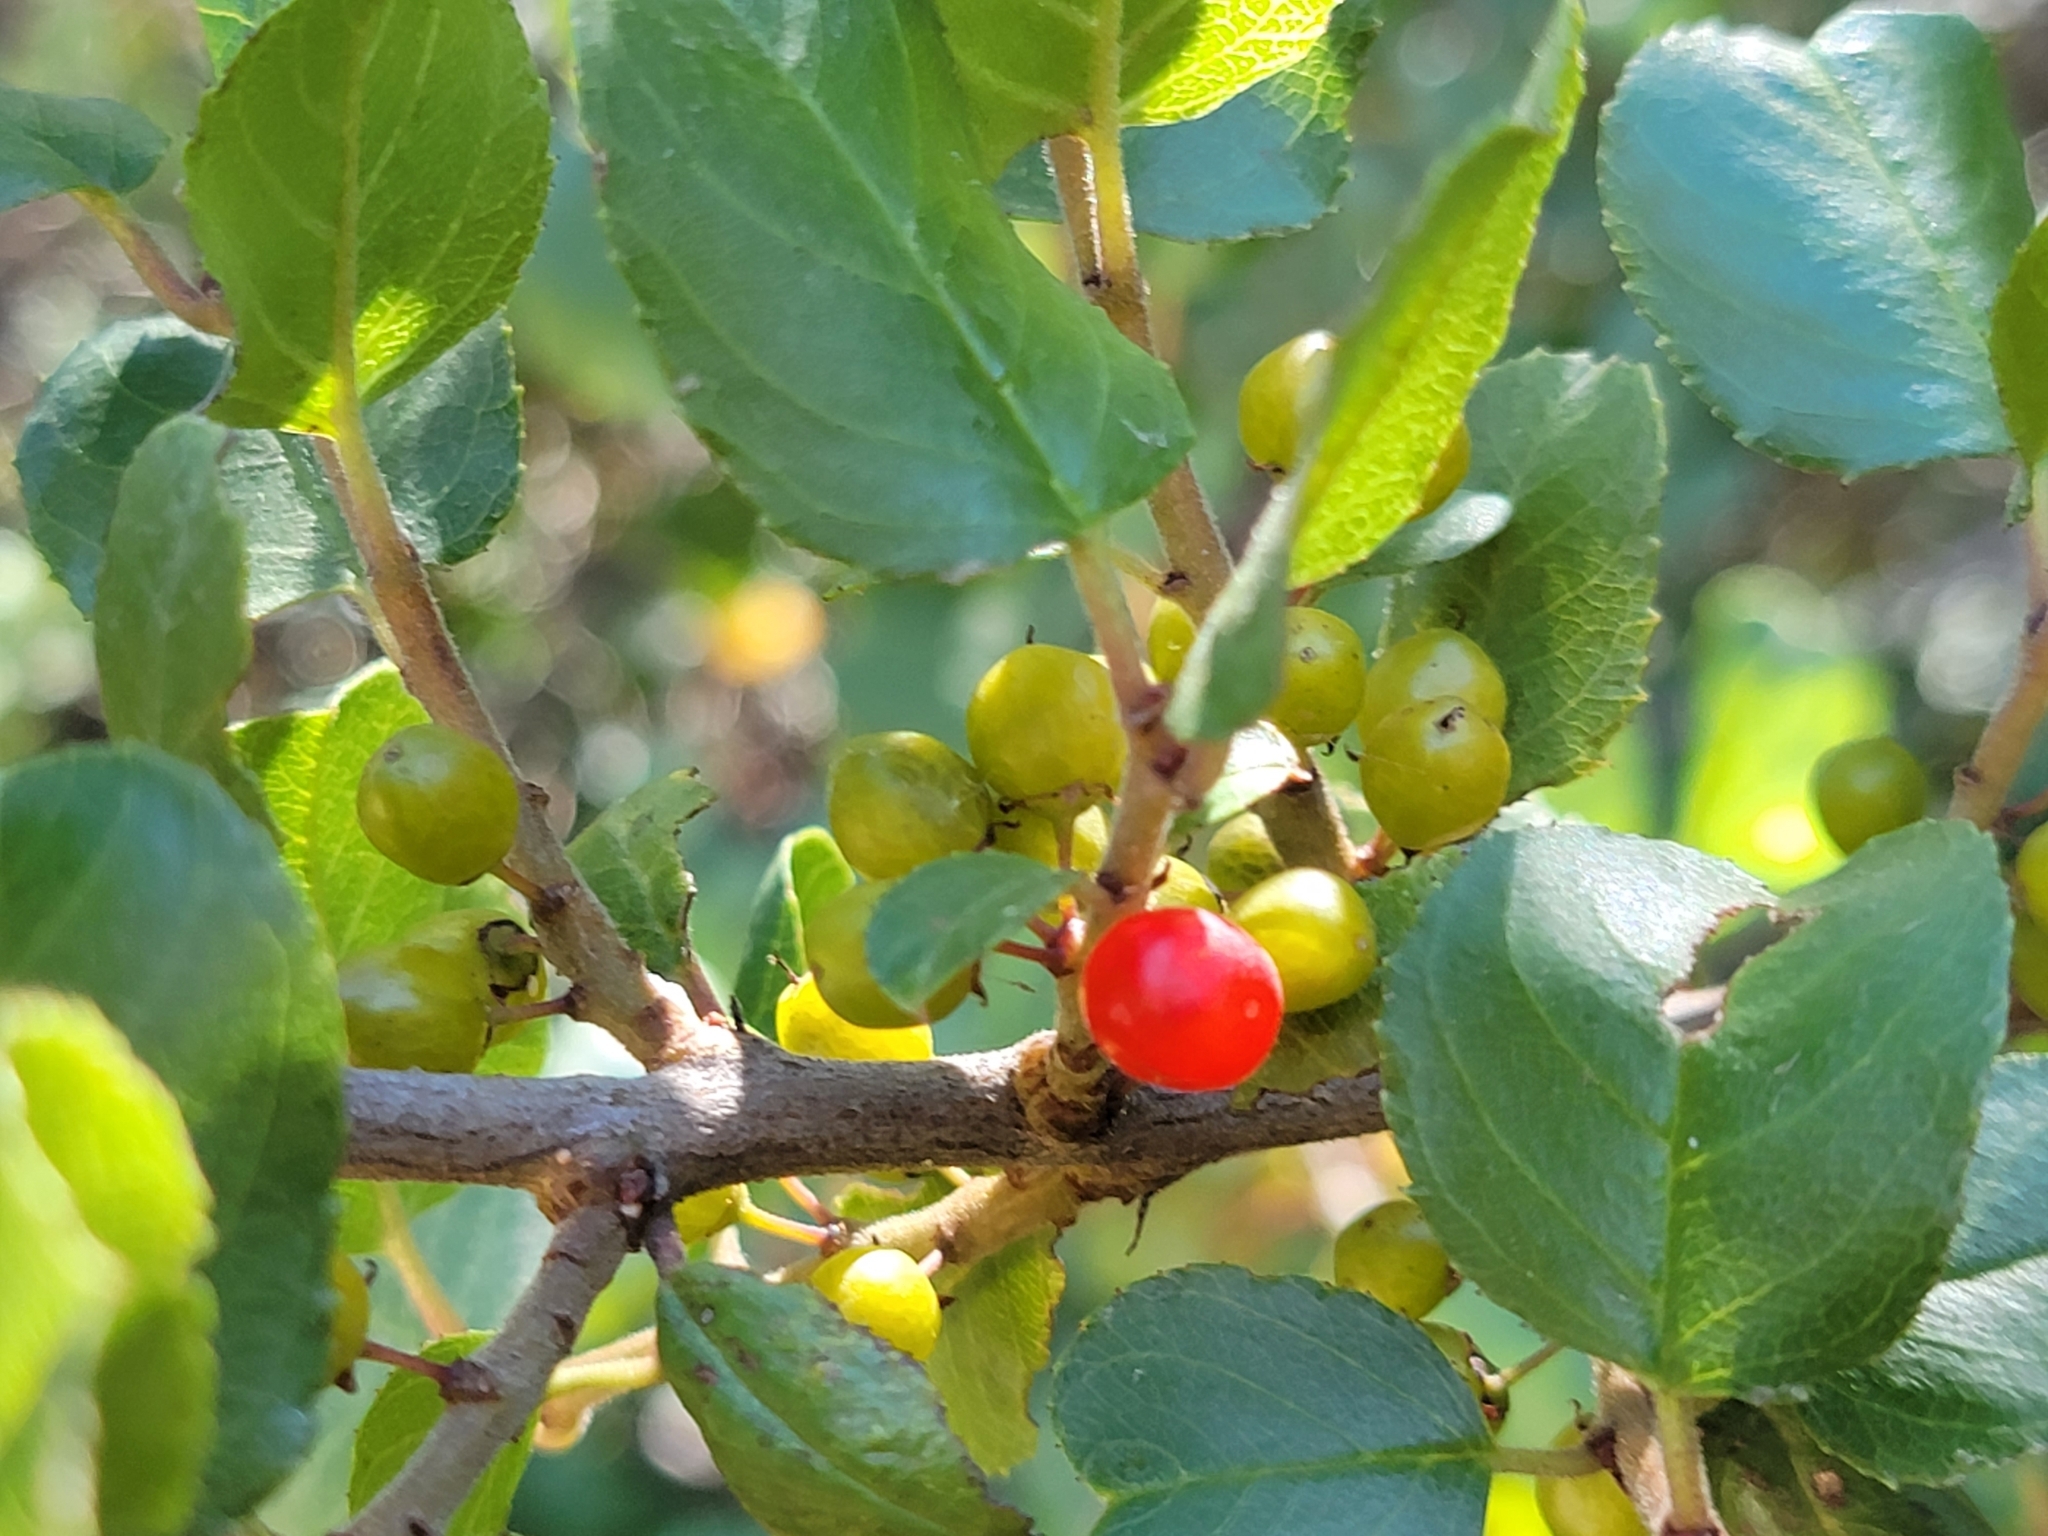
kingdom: Plantae
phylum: Tracheophyta
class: Magnoliopsida
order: Rosales
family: Rhamnaceae
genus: Endotropis
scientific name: Endotropis crocea
